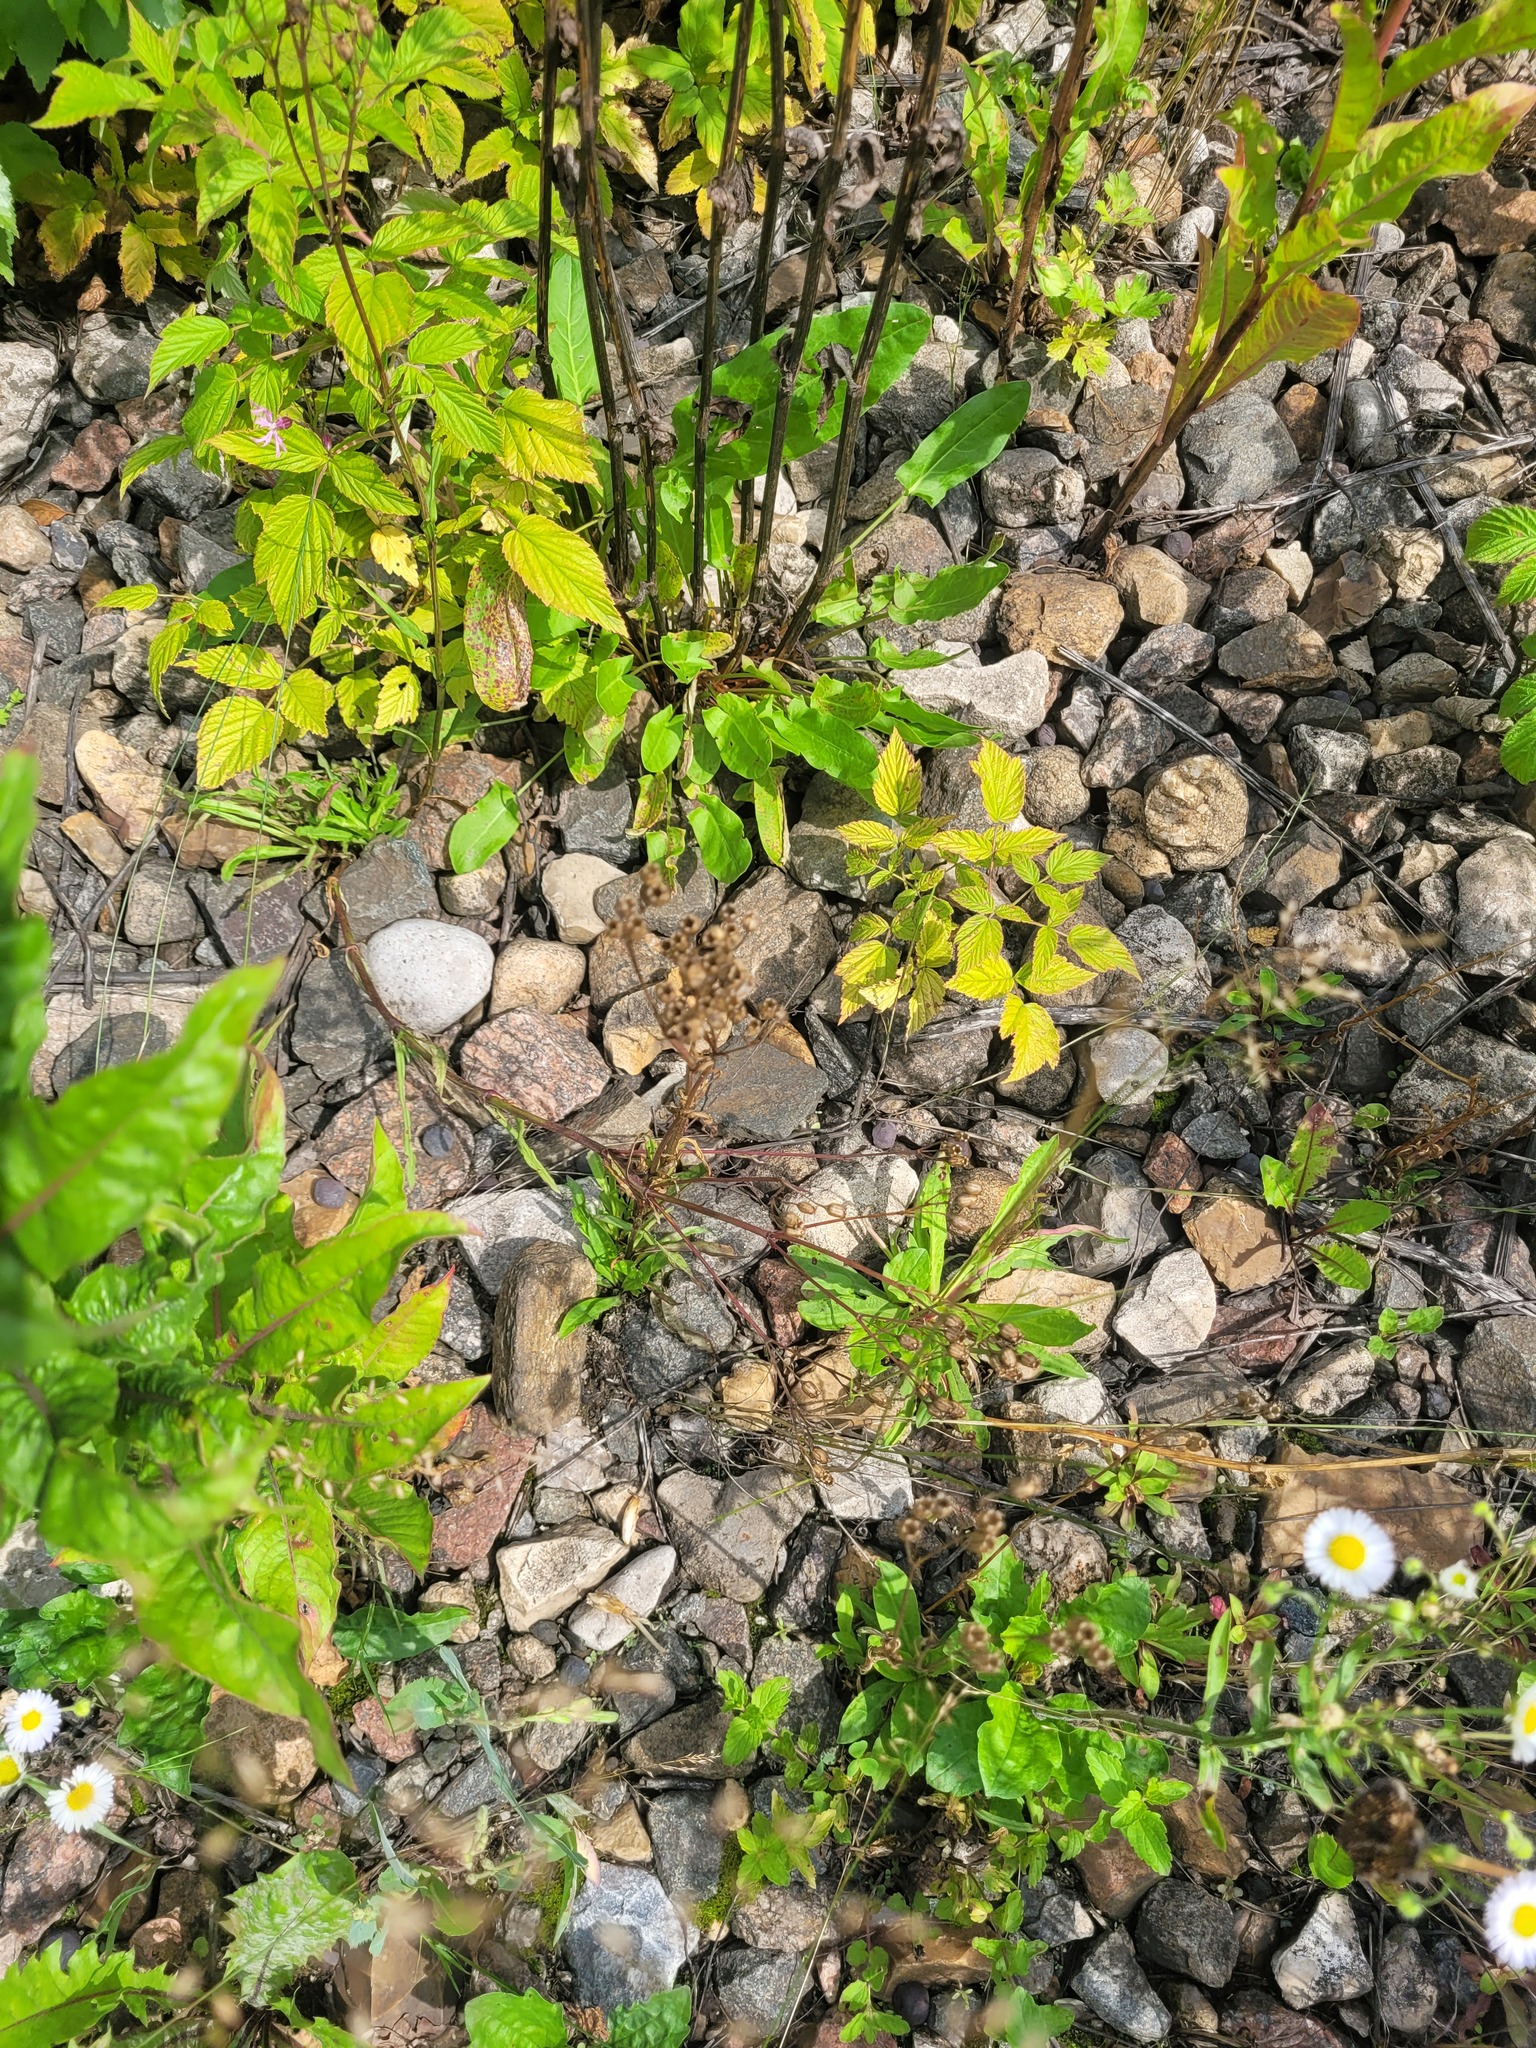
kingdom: Plantae
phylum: Tracheophyta
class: Magnoliopsida
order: Caryophyllales
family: Caryophyllaceae
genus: Silene
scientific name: Silene flos-cuculi
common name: Ragged-robin
